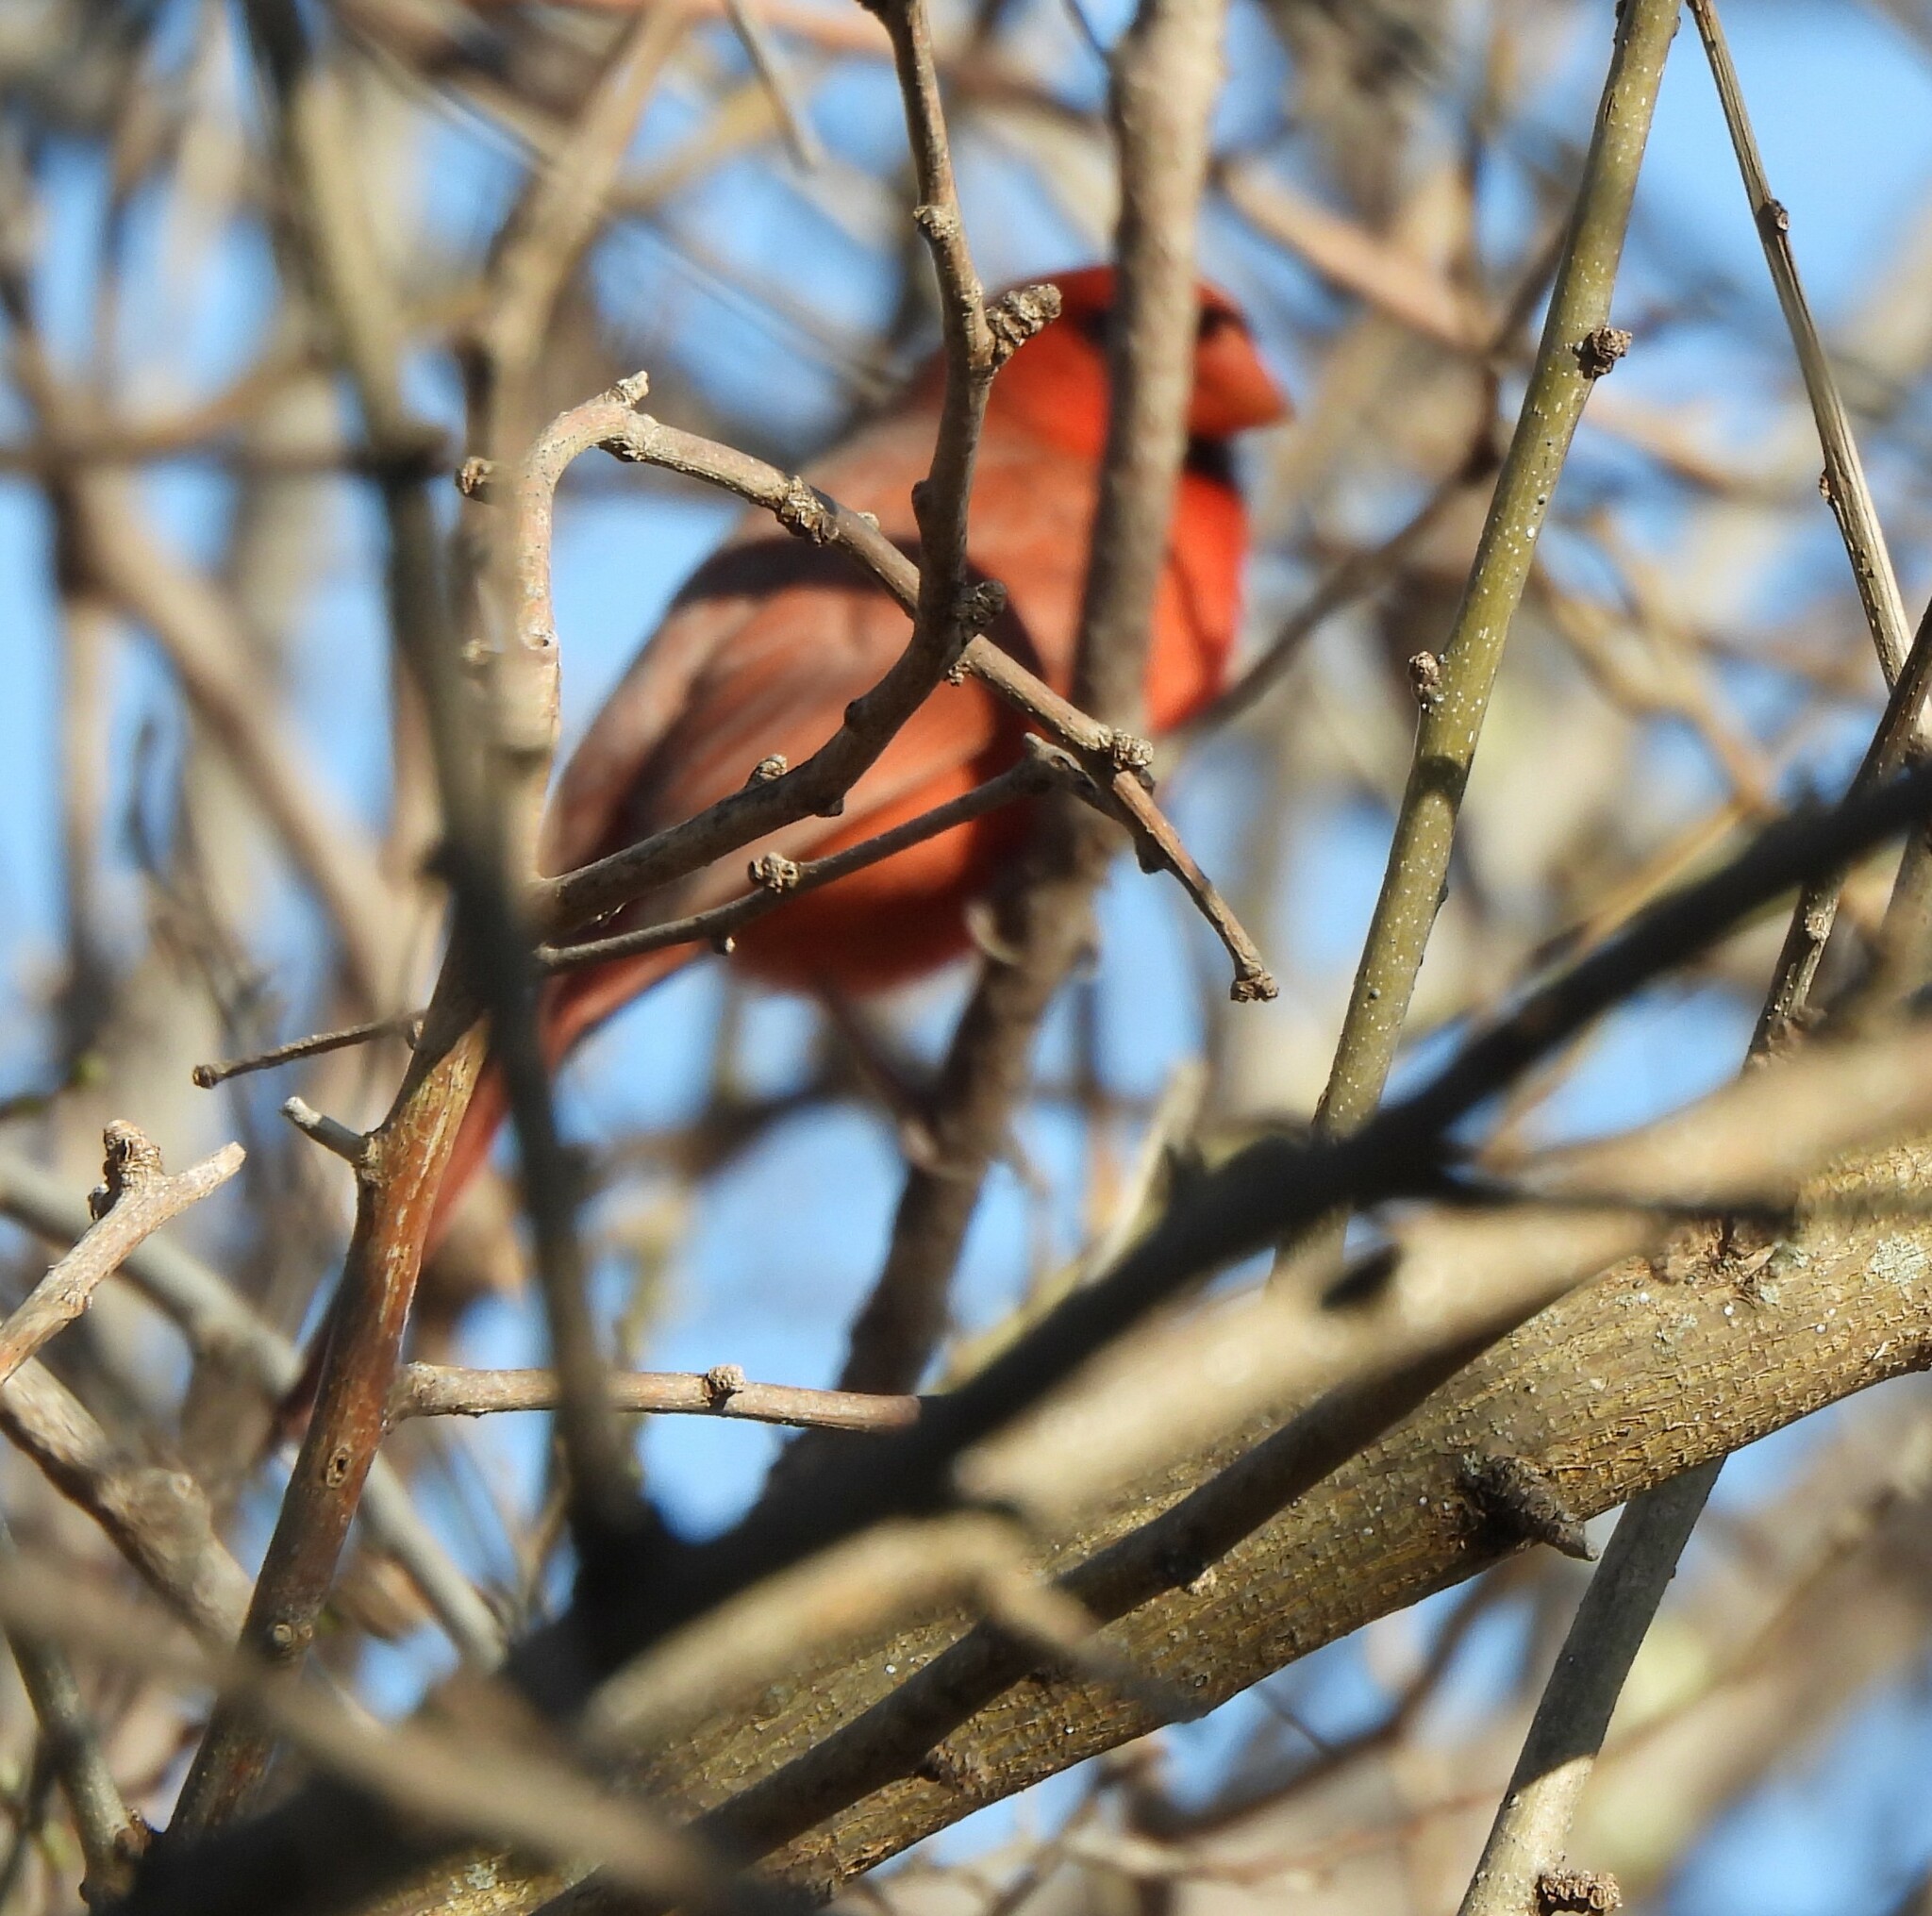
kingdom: Animalia
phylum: Chordata
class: Aves
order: Passeriformes
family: Cardinalidae
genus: Cardinalis
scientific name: Cardinalis cardinalis
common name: Northern cardinal
